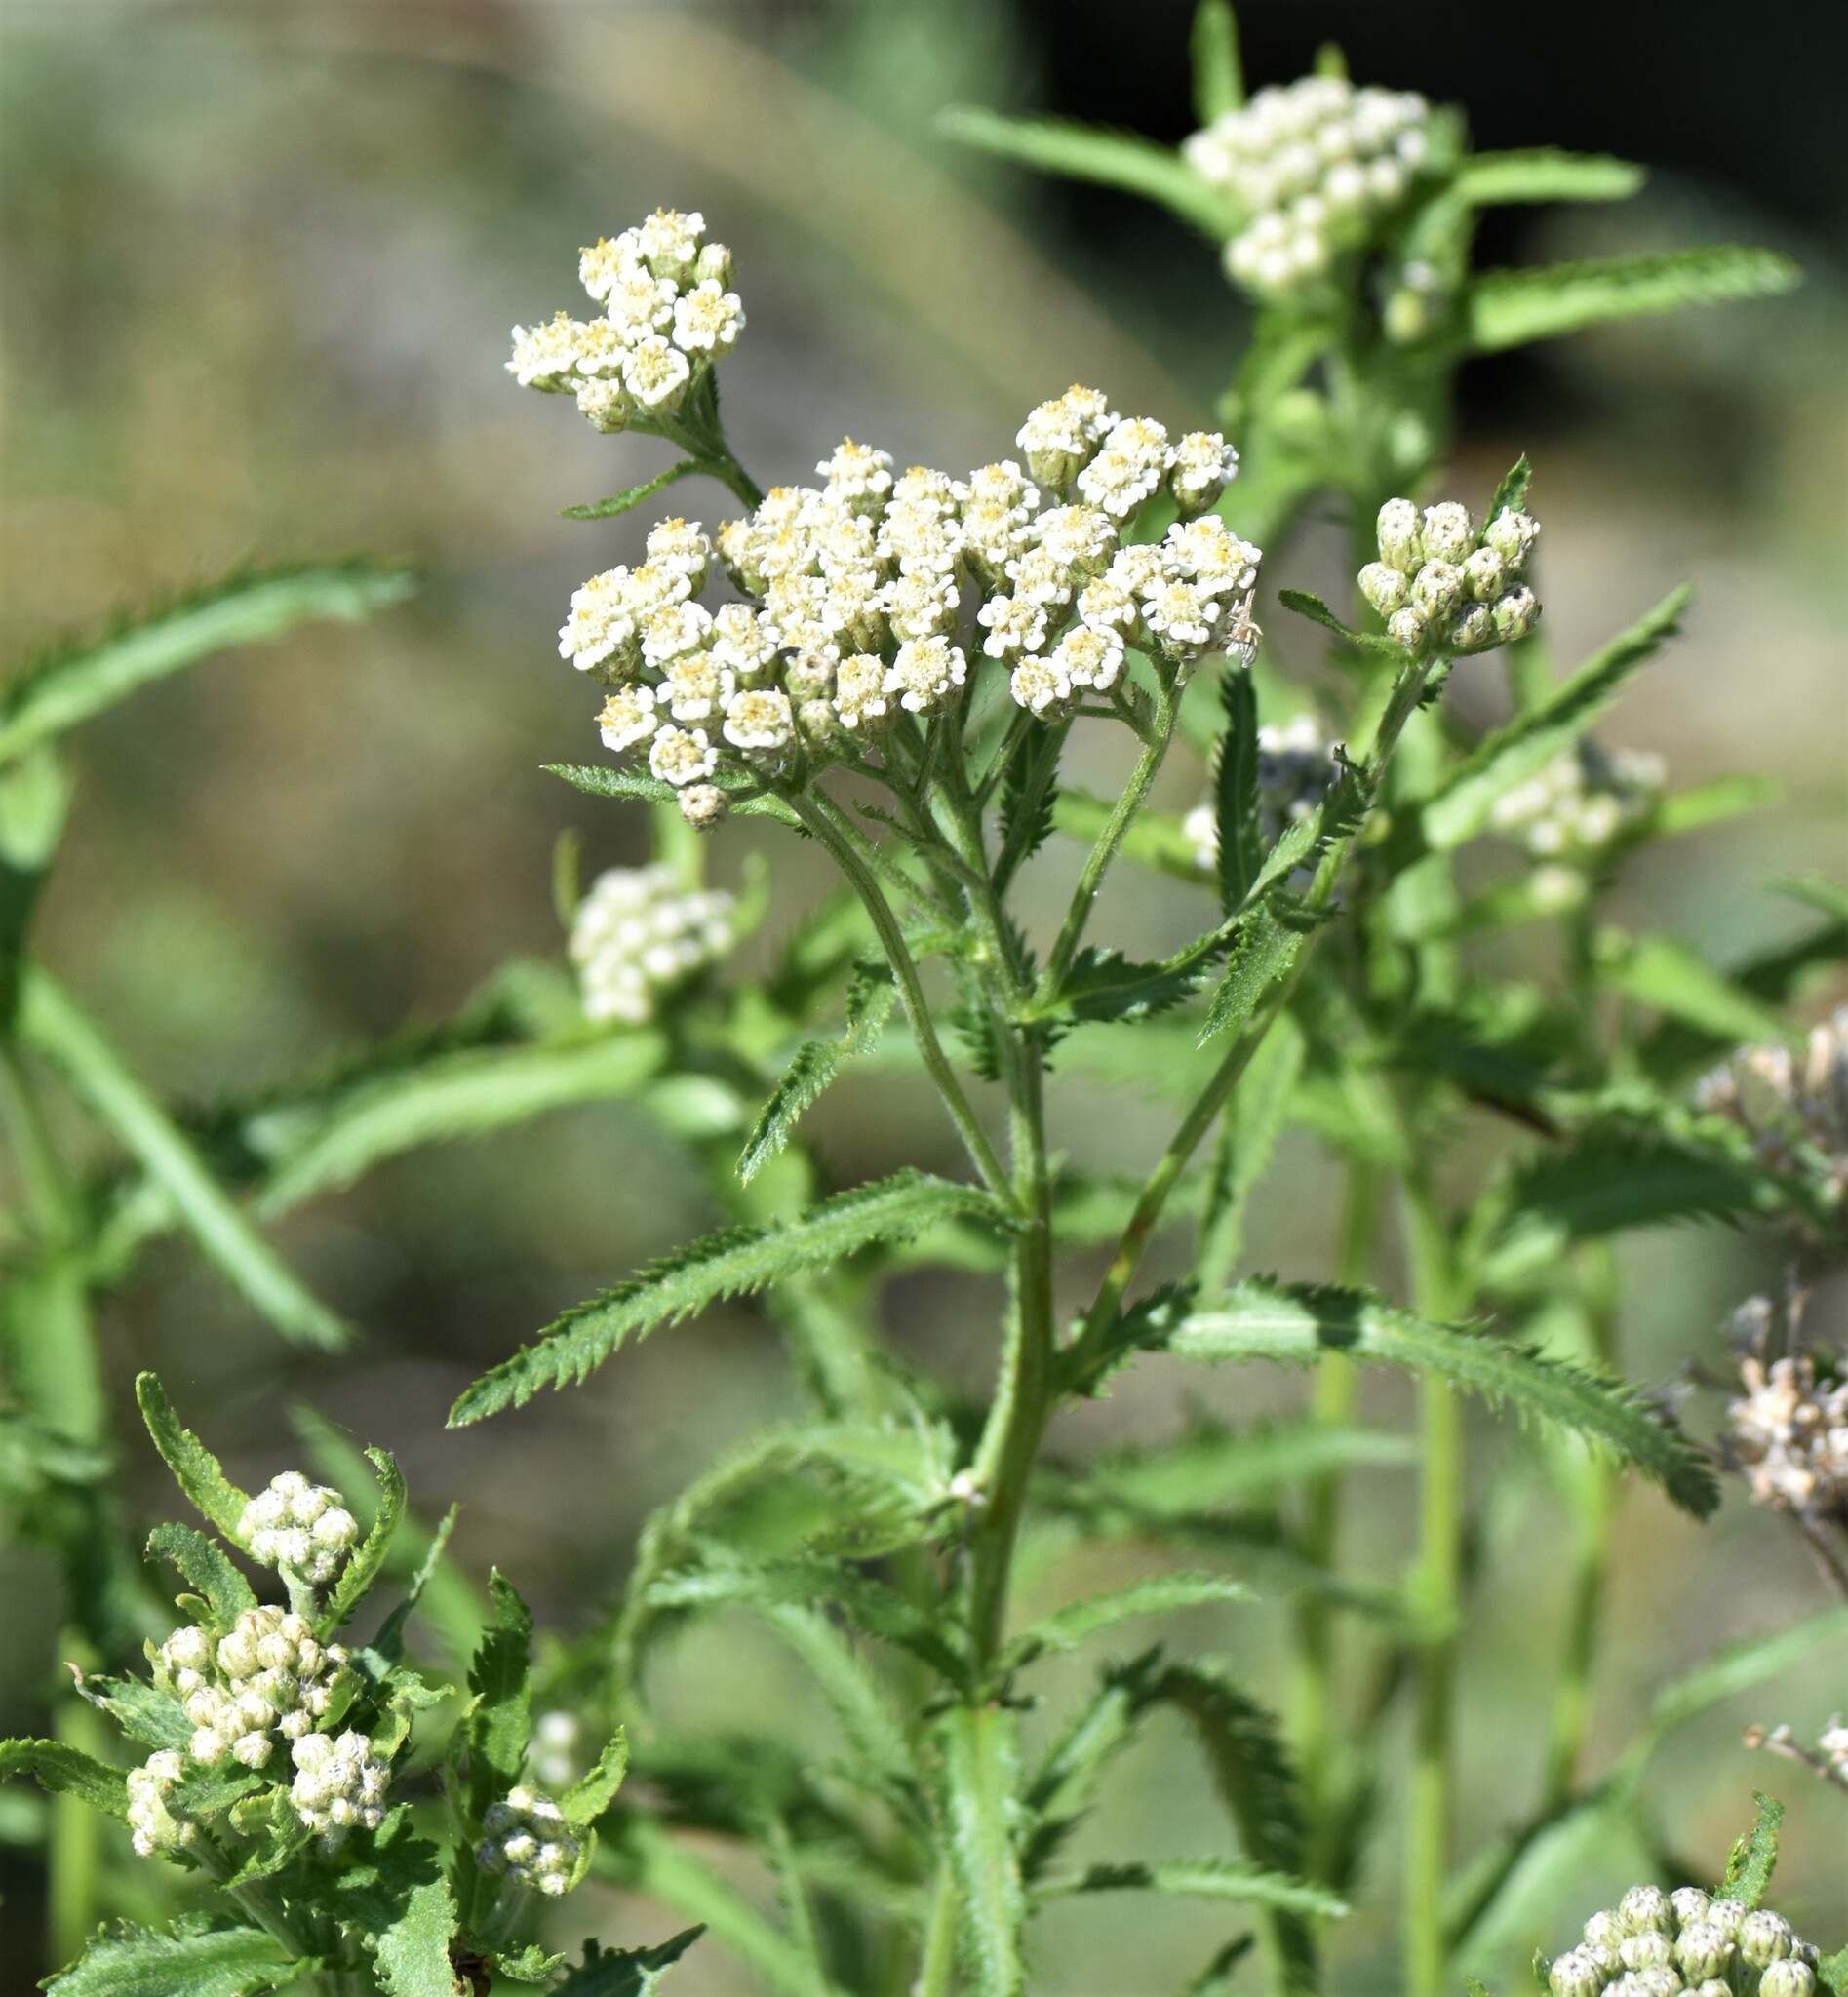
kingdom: Plantae
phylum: Tracheophyta
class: Magnoliopsida
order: Asterales
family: Asteraceae
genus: Achillea
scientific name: Achillea alpina
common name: Siberian yarrow
